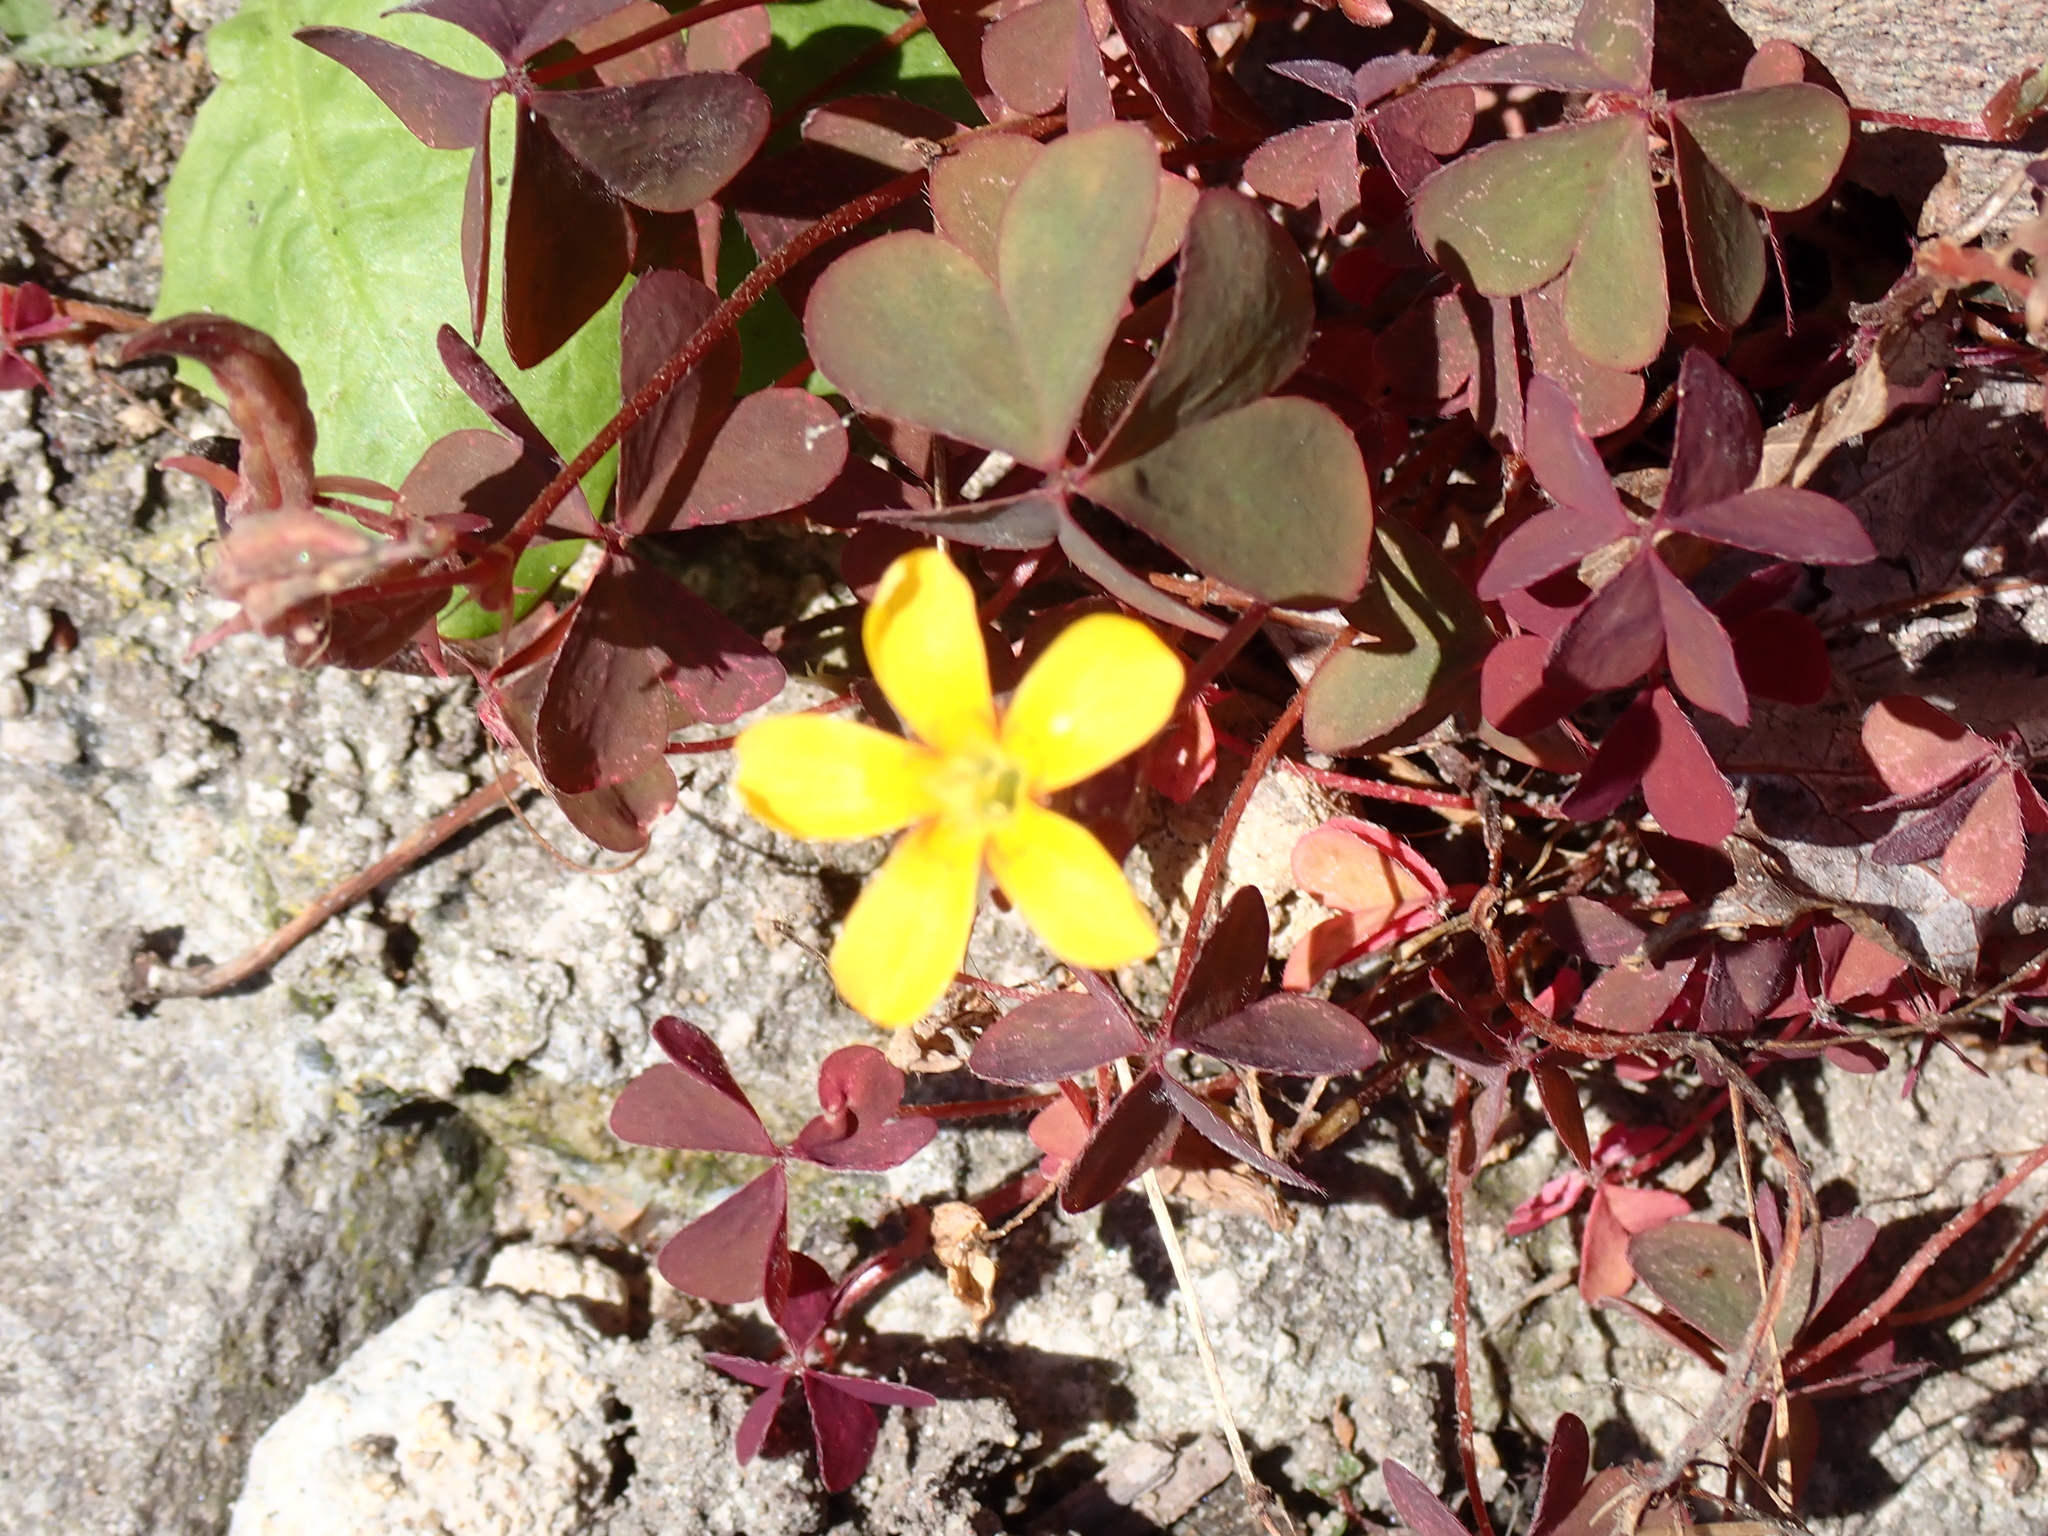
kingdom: Plantae
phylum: Tracheophyta
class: Magnoliopsida
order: Oxalidales
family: Oxalidaceae
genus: Oxalis
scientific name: Oxalis corniculata
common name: Procumbent yellow-sorrel
